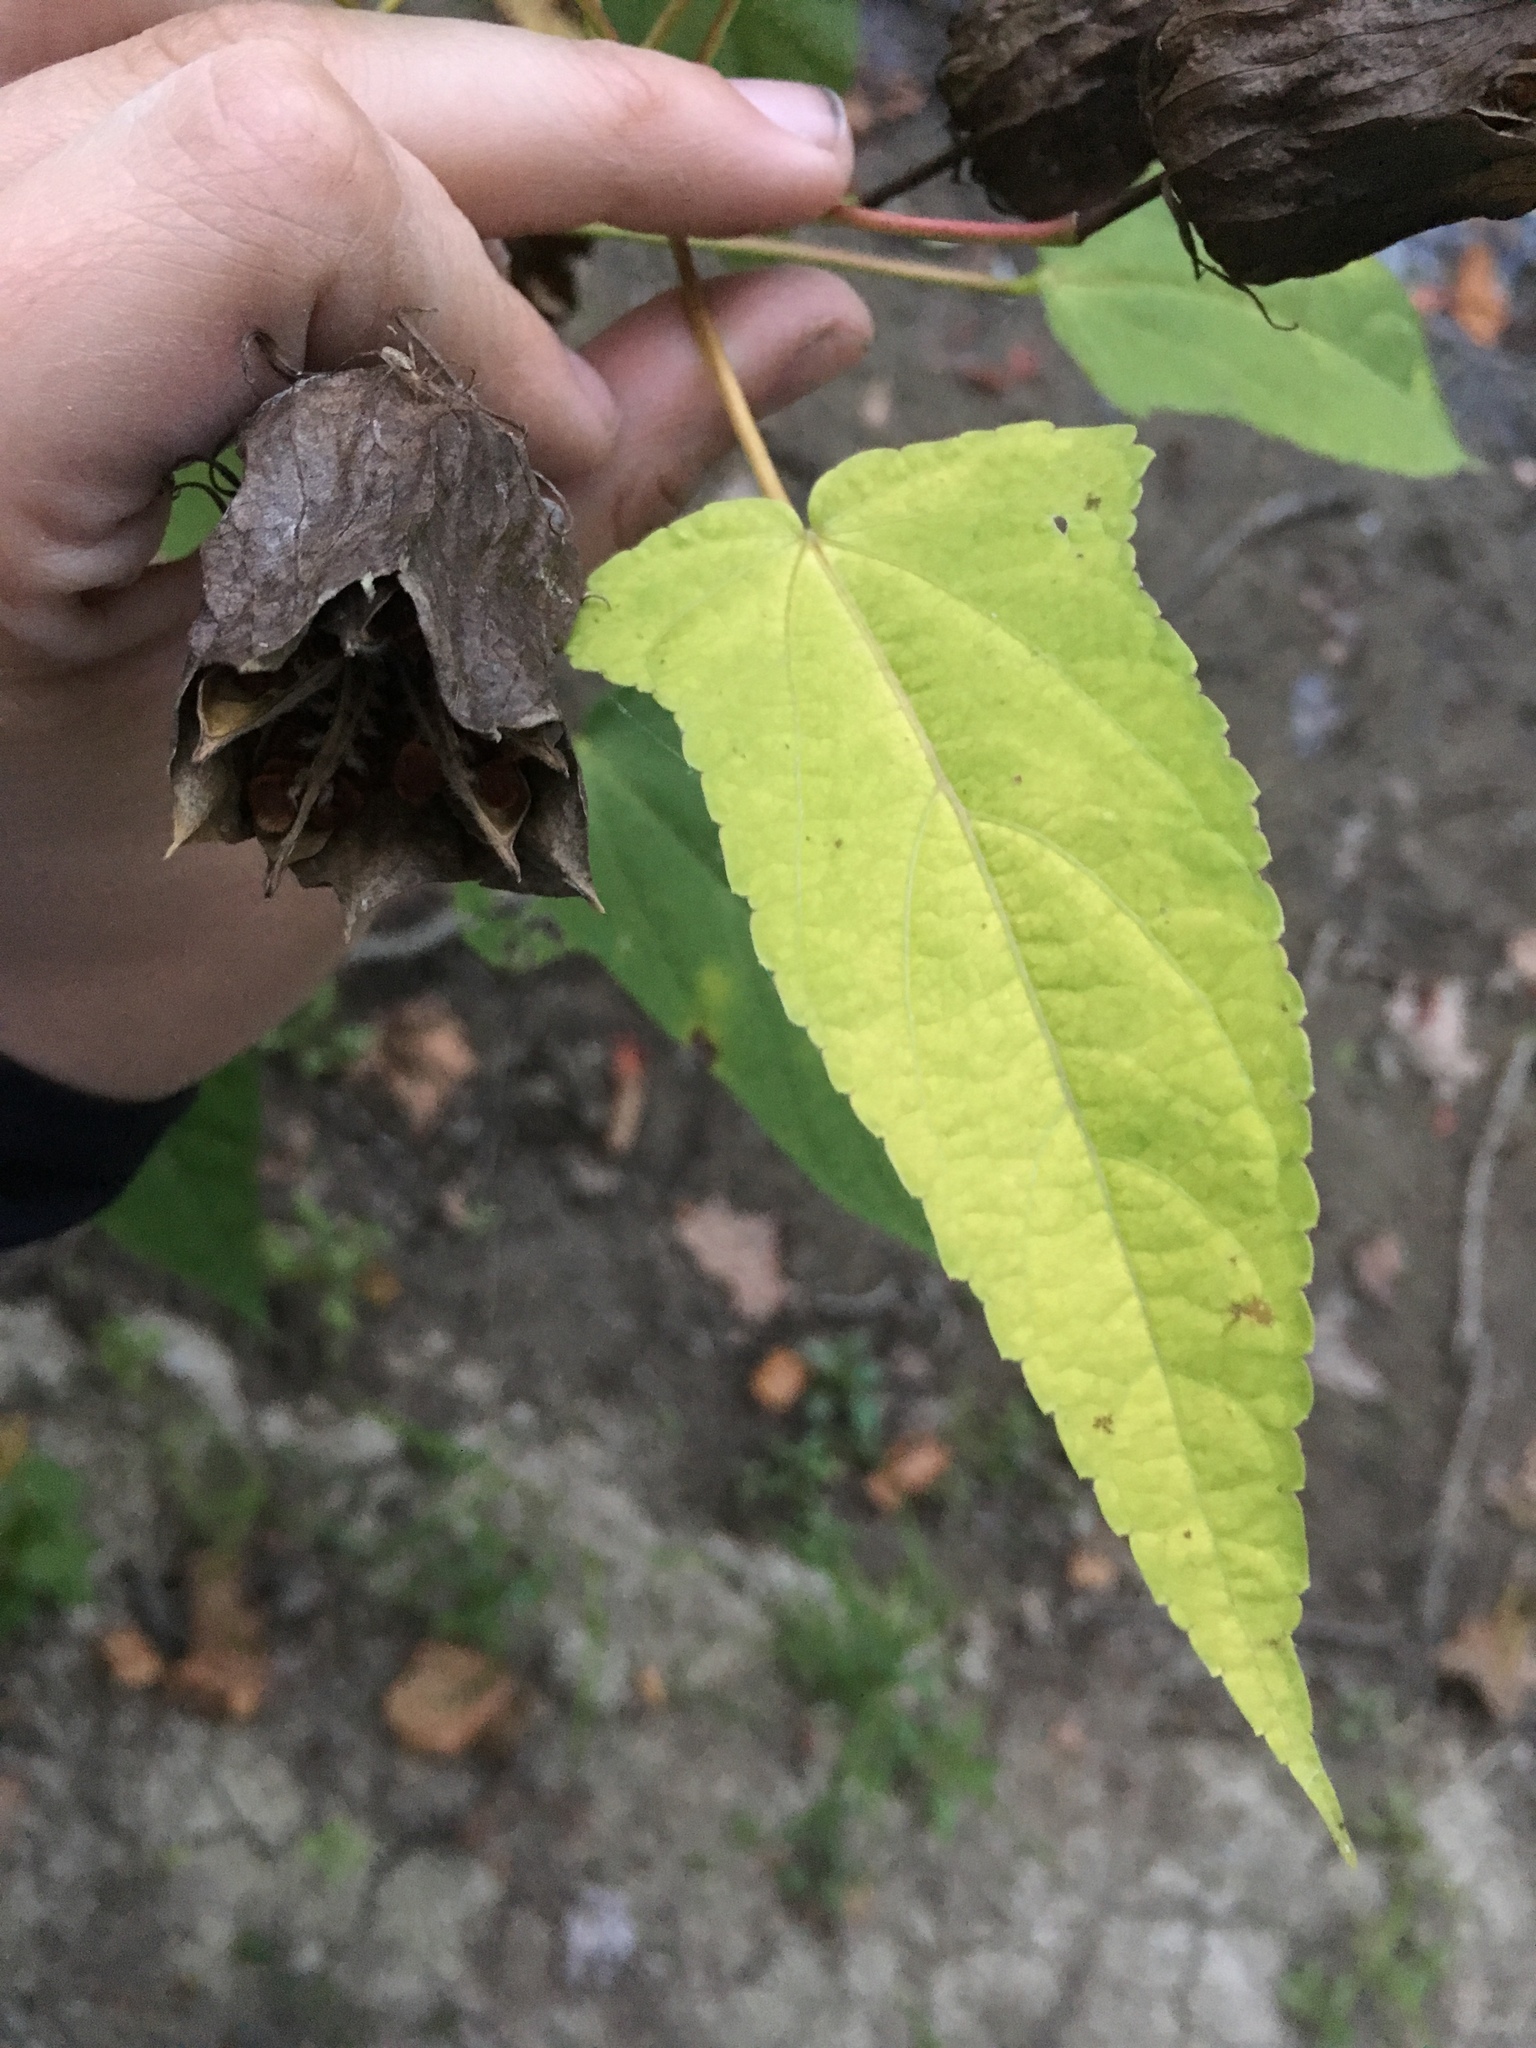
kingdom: Plantae
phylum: Tracheophyta
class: Magnoliopsida
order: Malvales
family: Malvaceae
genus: Hibiscus
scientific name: Hibiscus laevis
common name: Scarlet rose-mallow
